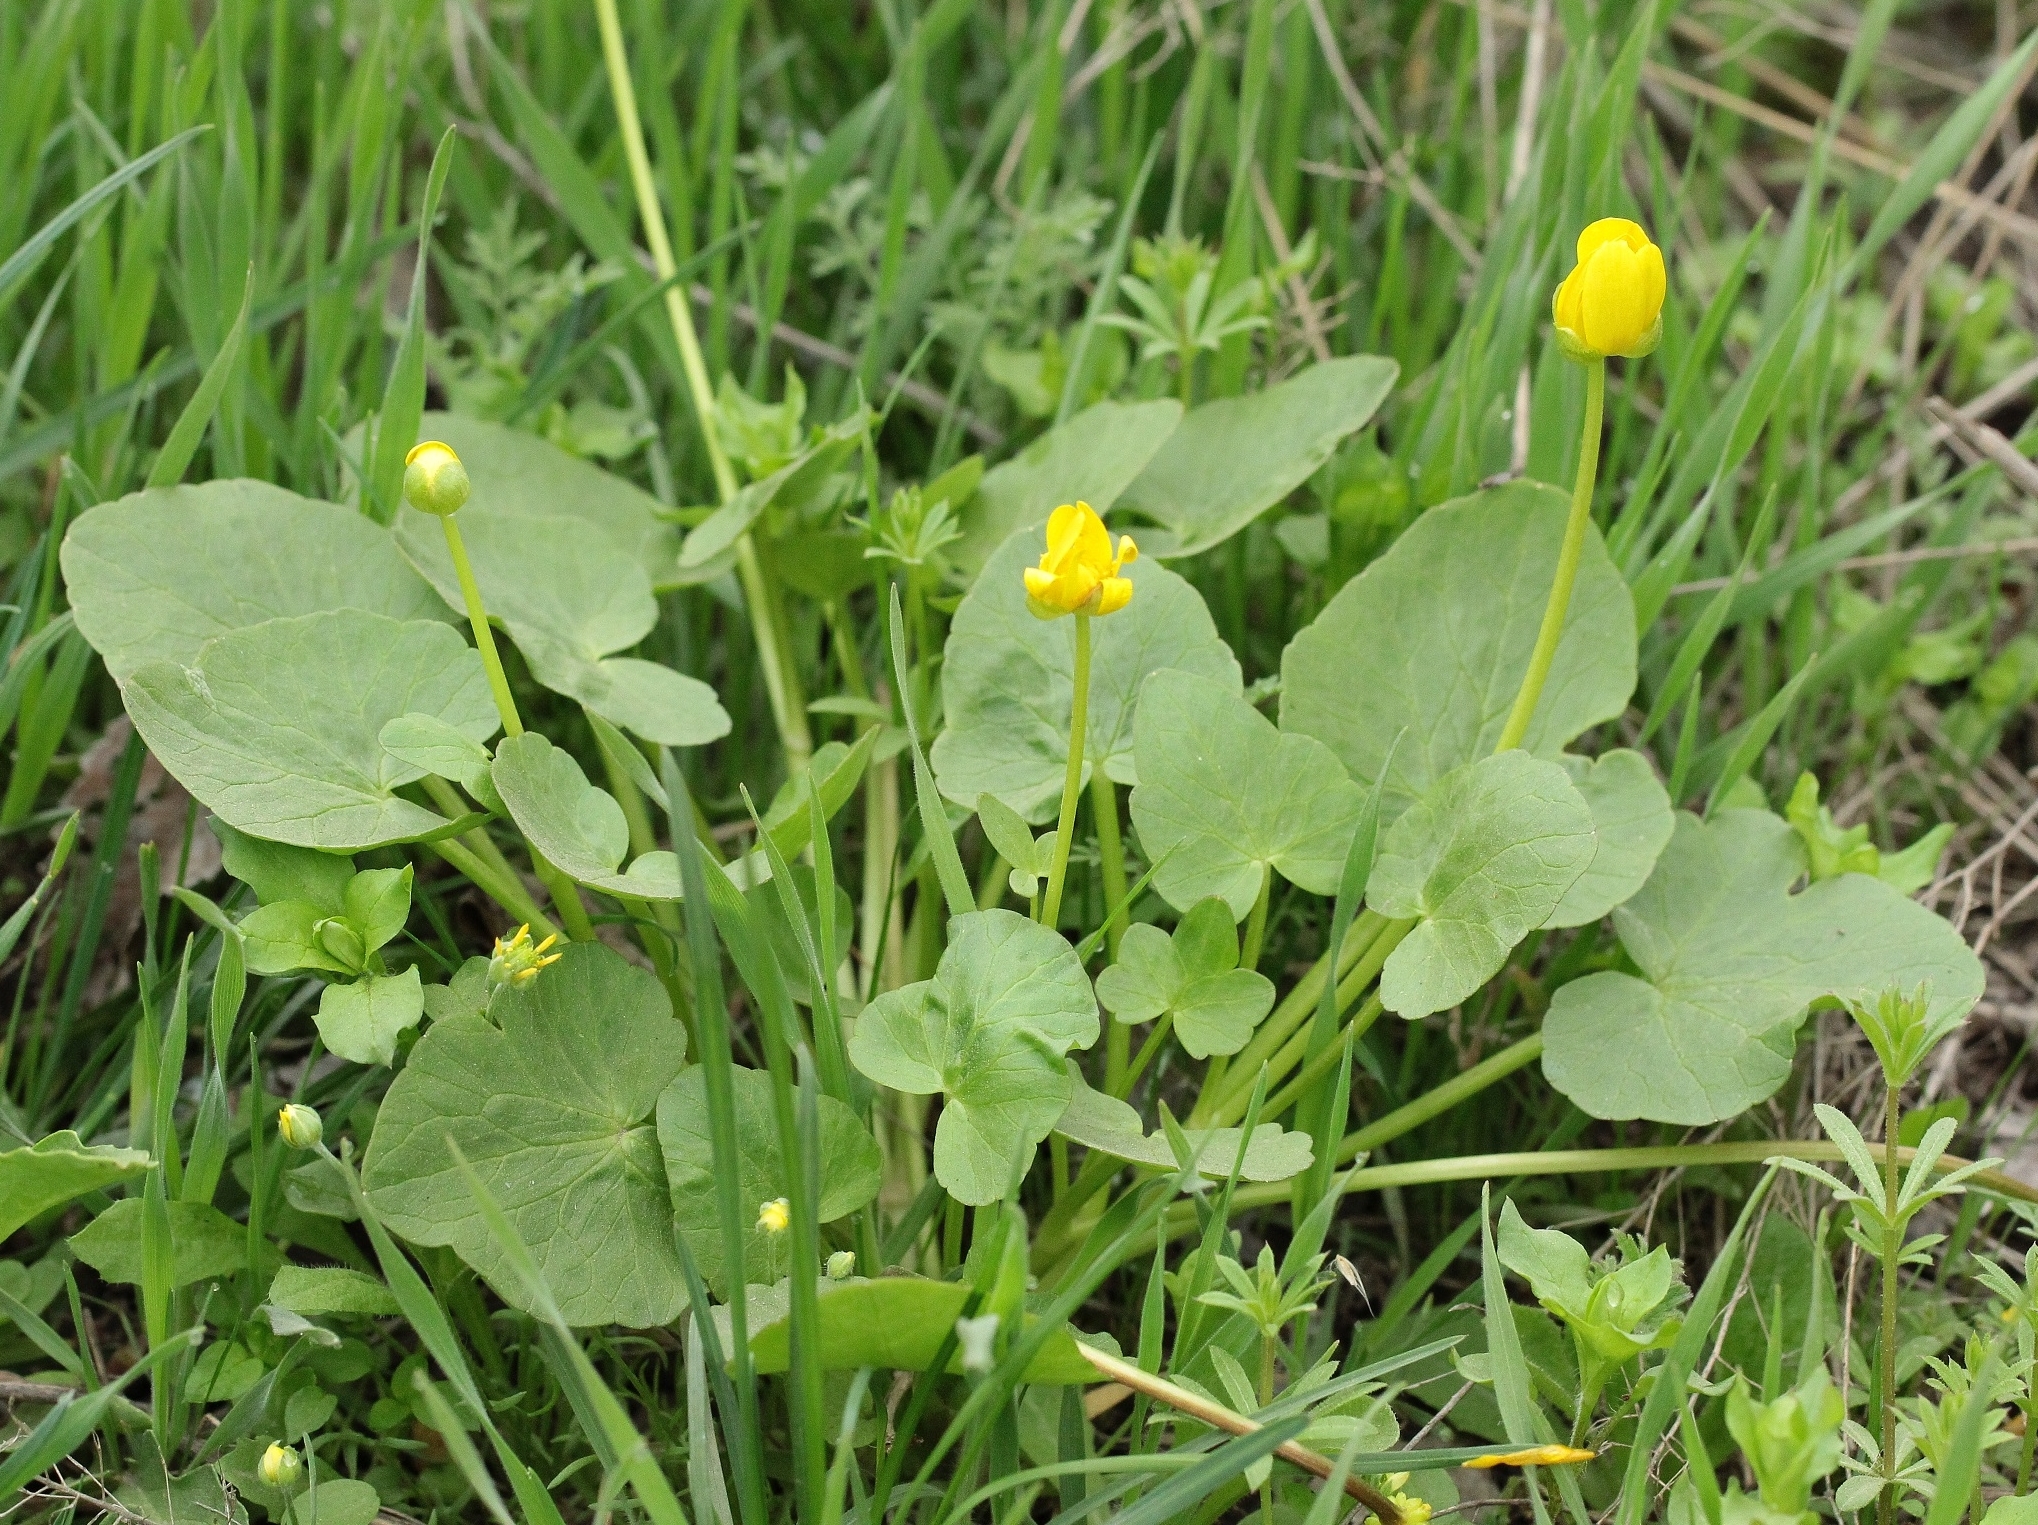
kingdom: Plantae
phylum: Tracheophyta
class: Magnoliopsida
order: Ranunculales
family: Ranunculaceae
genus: Ficaria
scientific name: Ficaria verna
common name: Lesser celandine
